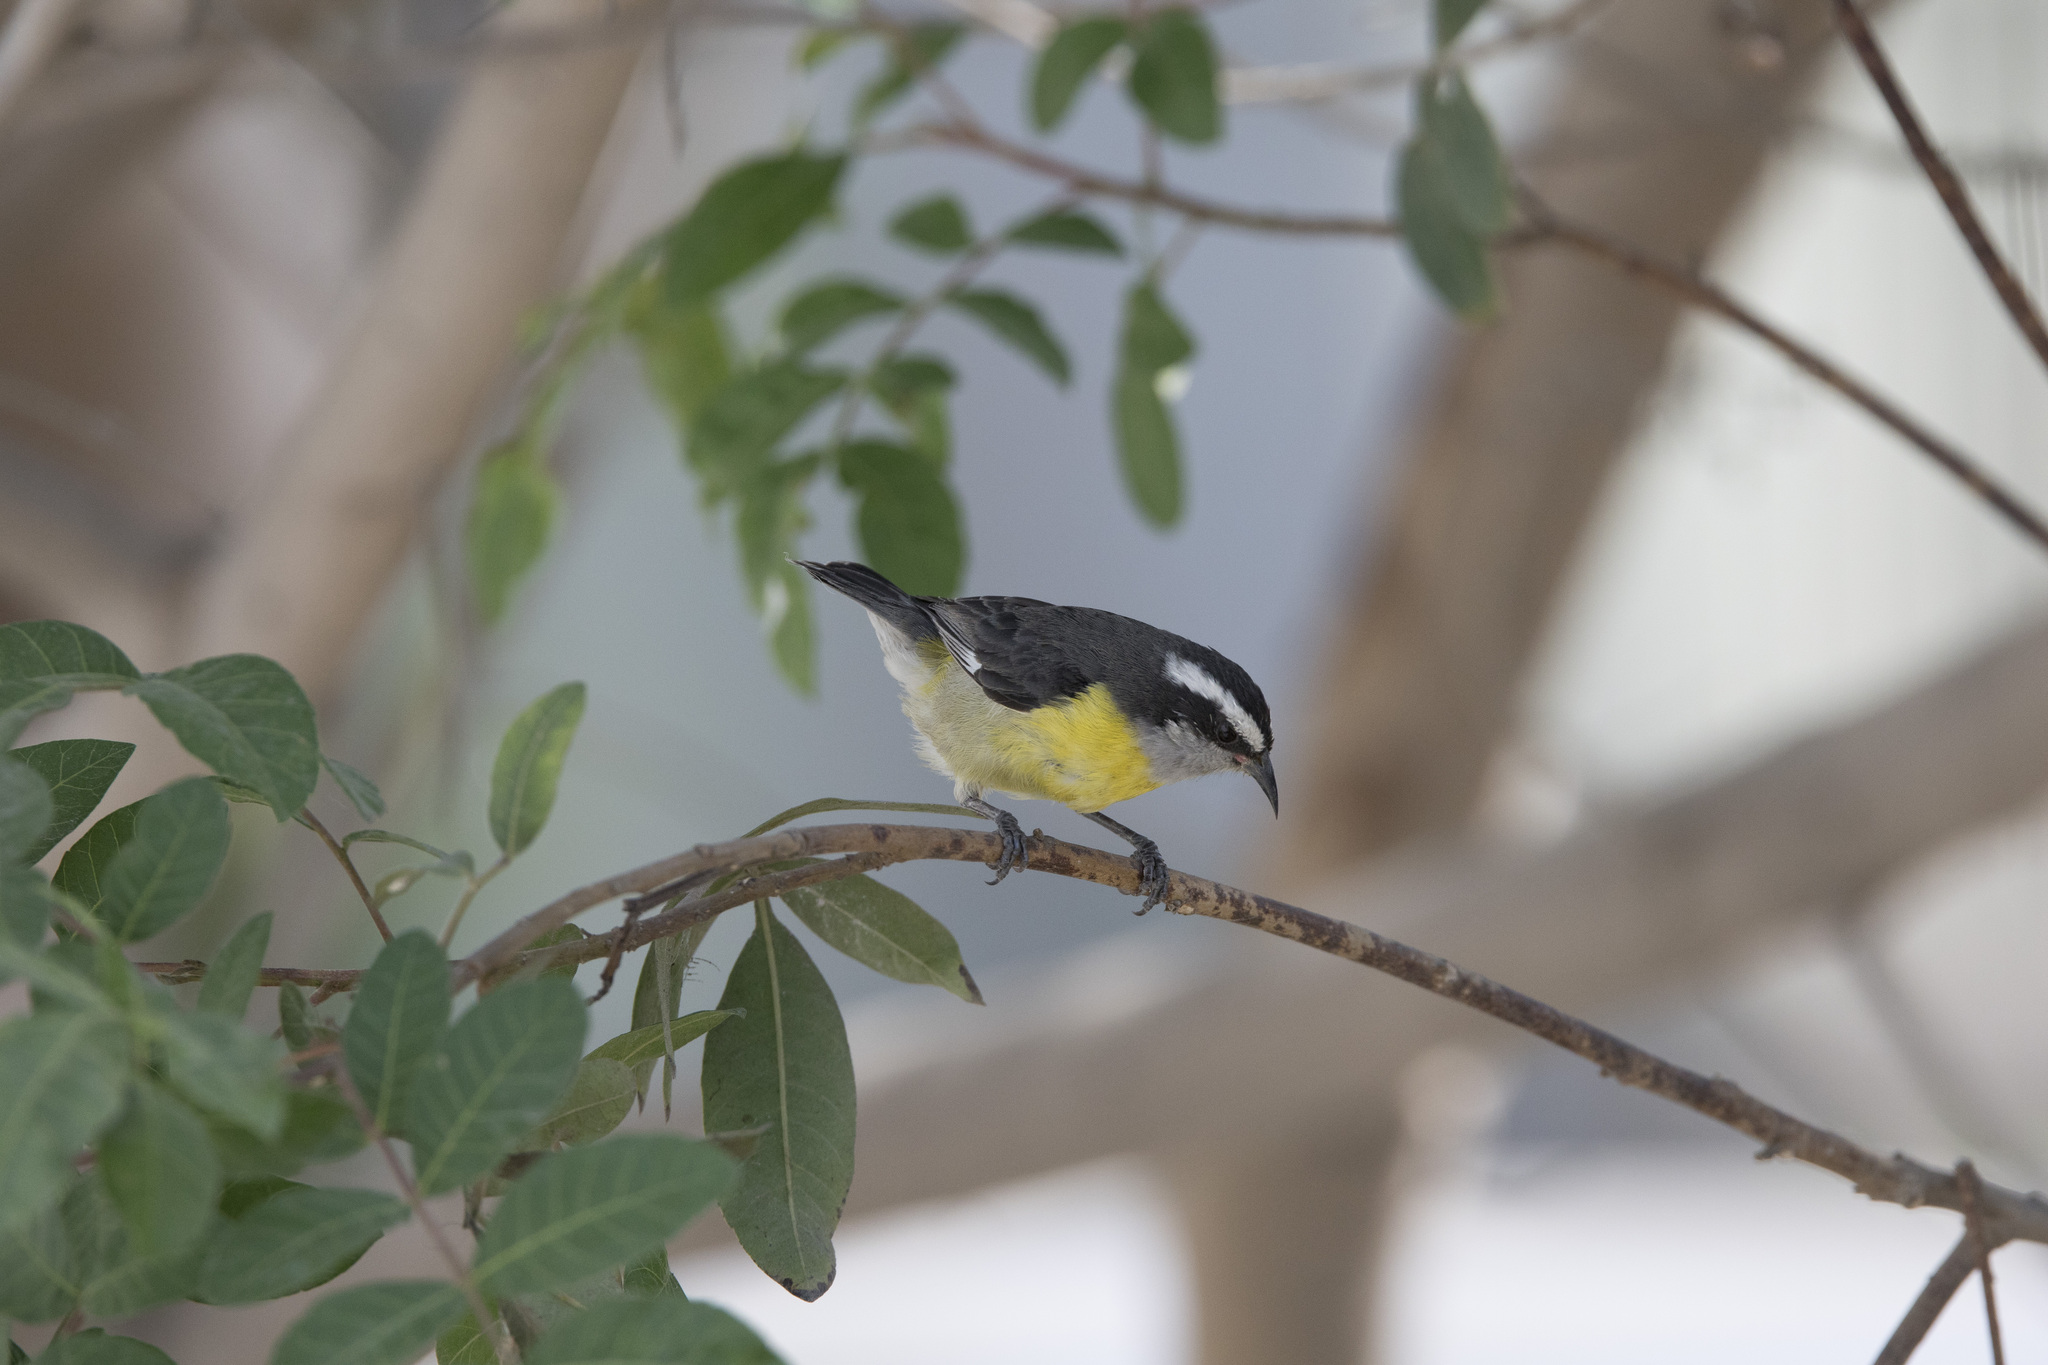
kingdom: Animalia
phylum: Chordata
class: Aves
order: Passeriformes
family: Thraupidae
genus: Coereba
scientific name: Coereba flaveola
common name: Bananaquit
